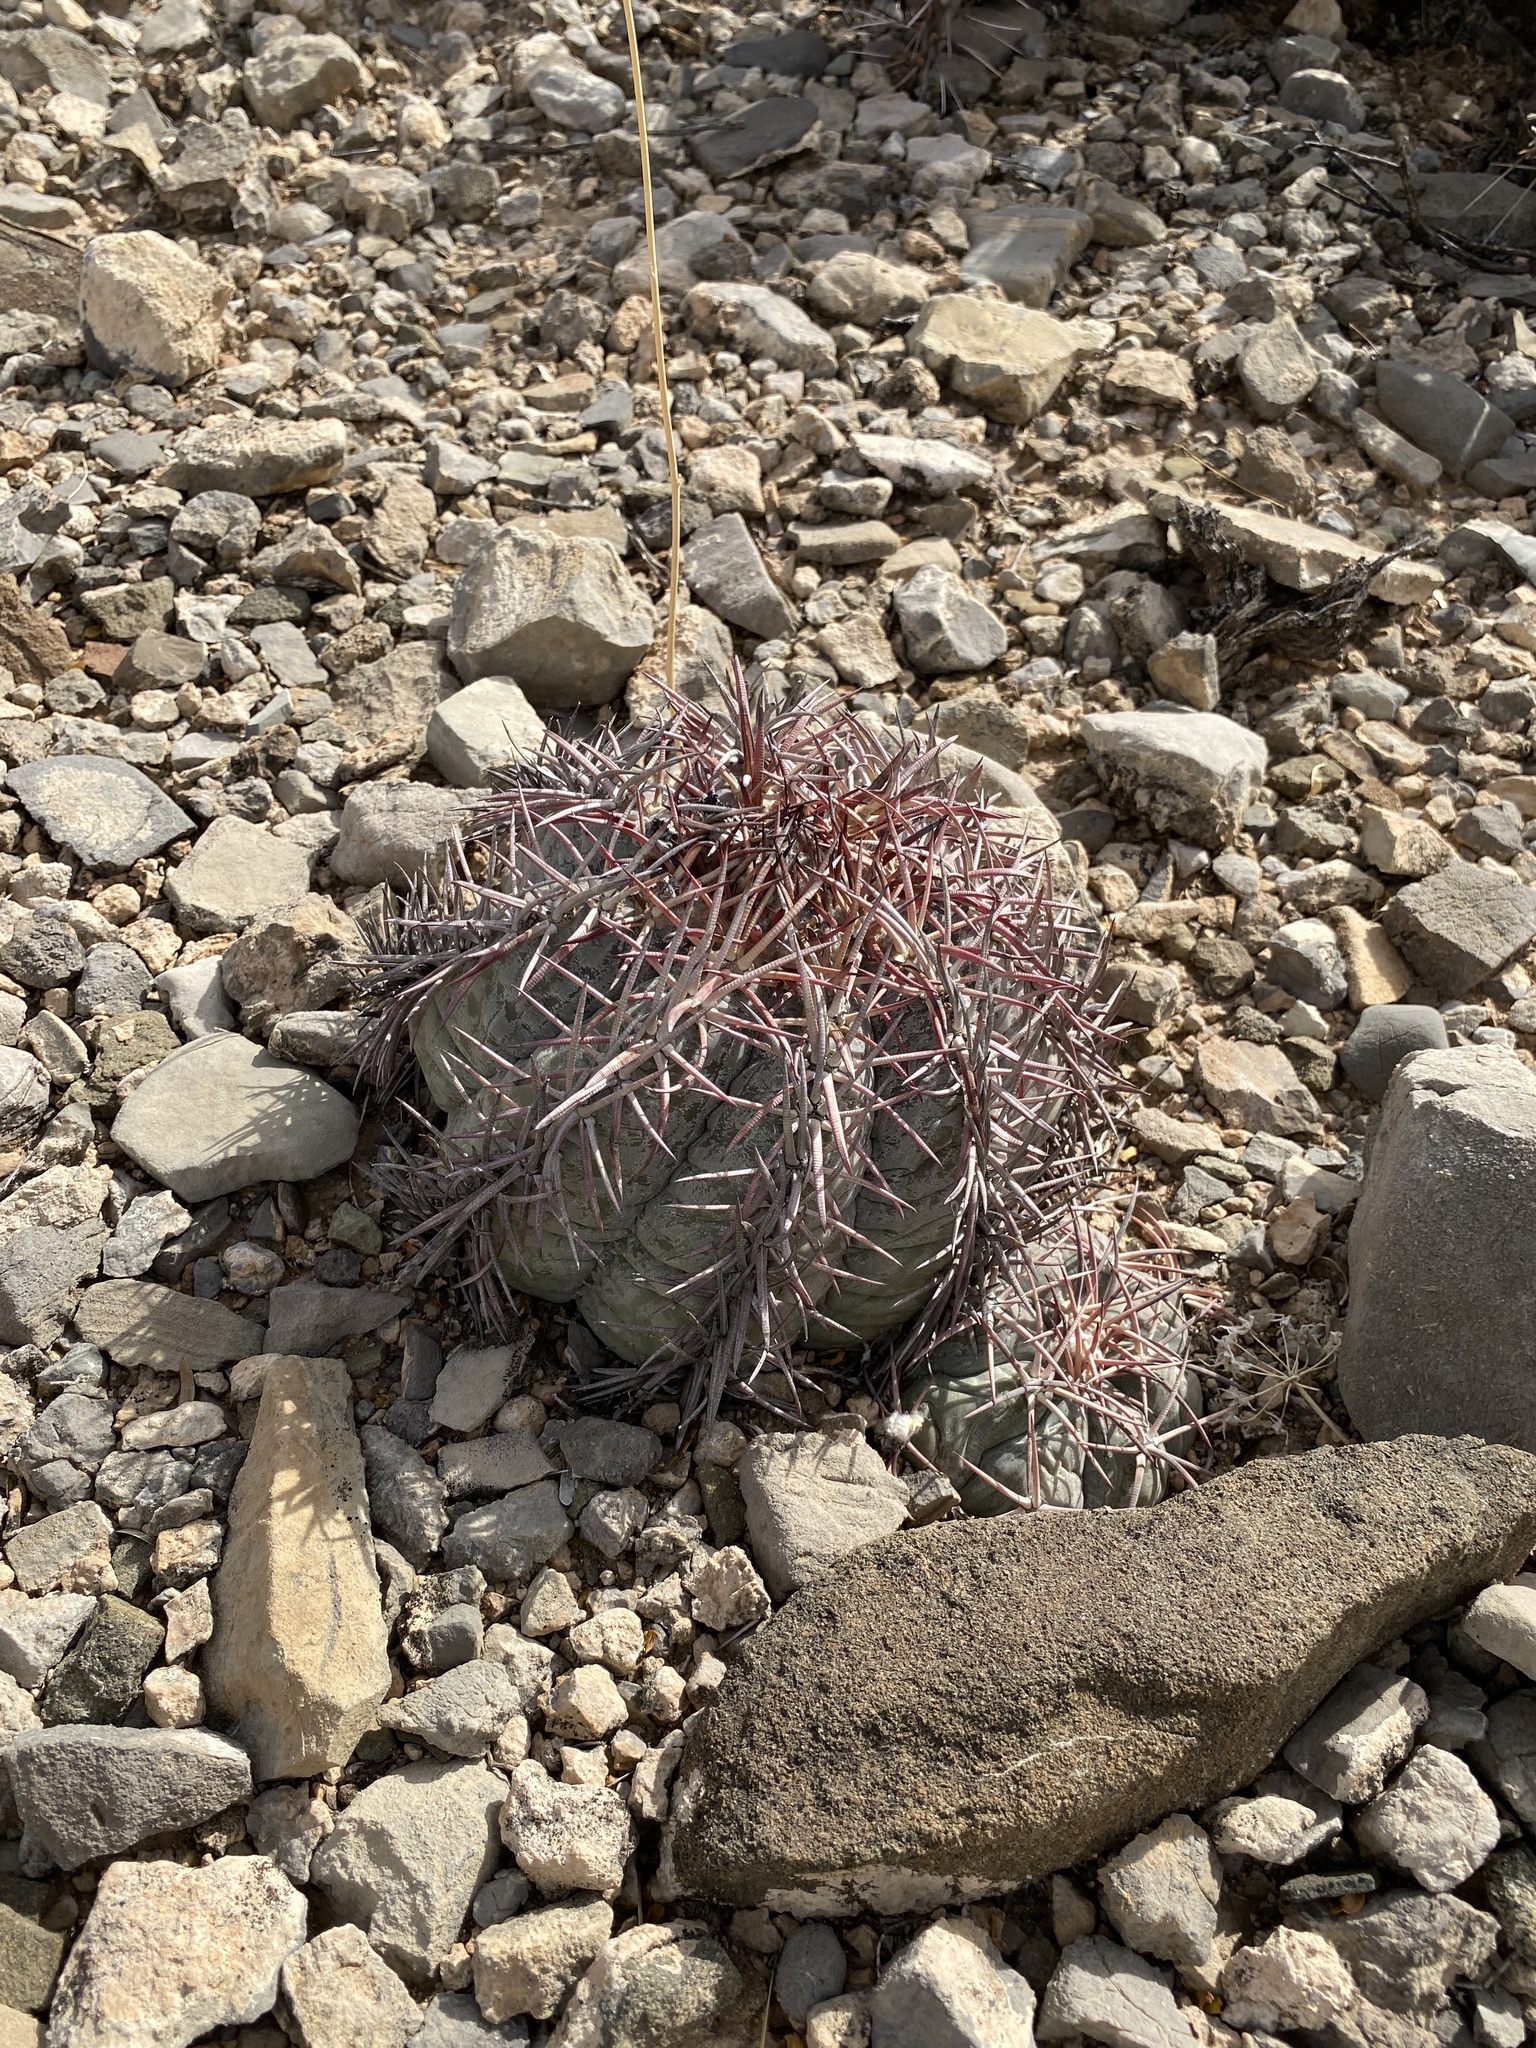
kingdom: Plantae
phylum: Tracheophyta
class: Magnoliopsida
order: Caryophyllales
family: Cactaceae
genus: Echinocactus
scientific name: Echinocactus horizonthalonius
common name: Devilshead
